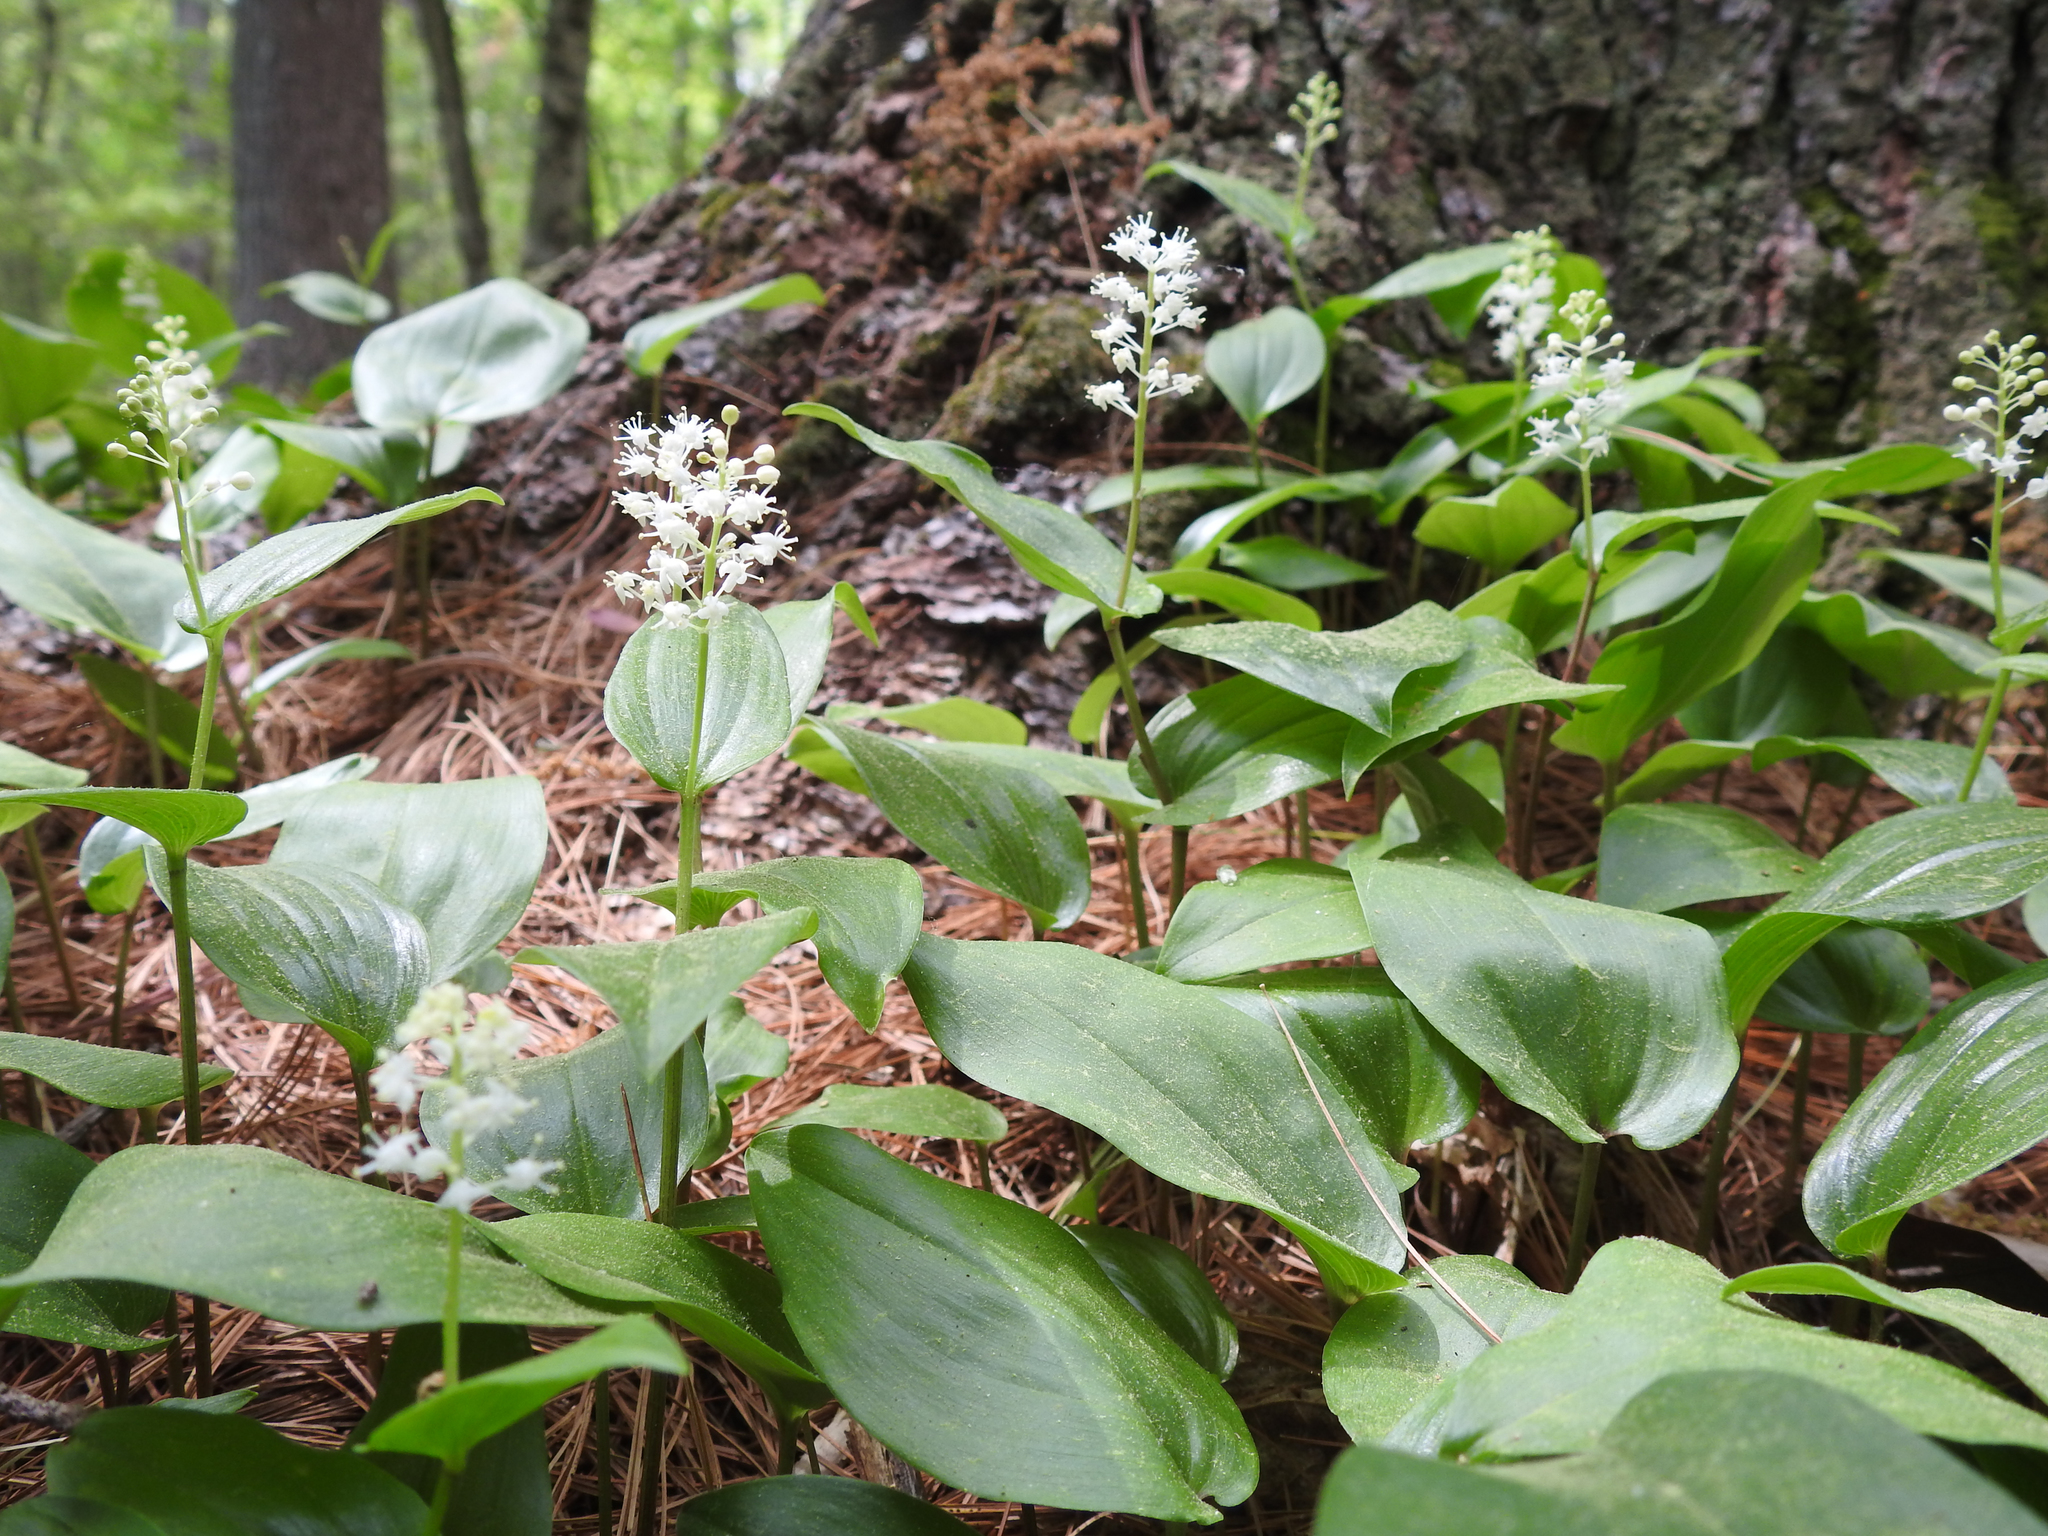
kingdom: Plantae
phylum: Tracheophyta
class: Liliopsida
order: Asparagales
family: Asparagaceae
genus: Maianthemum
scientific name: Maianthemum canadense
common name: False lily-of-the-valley
